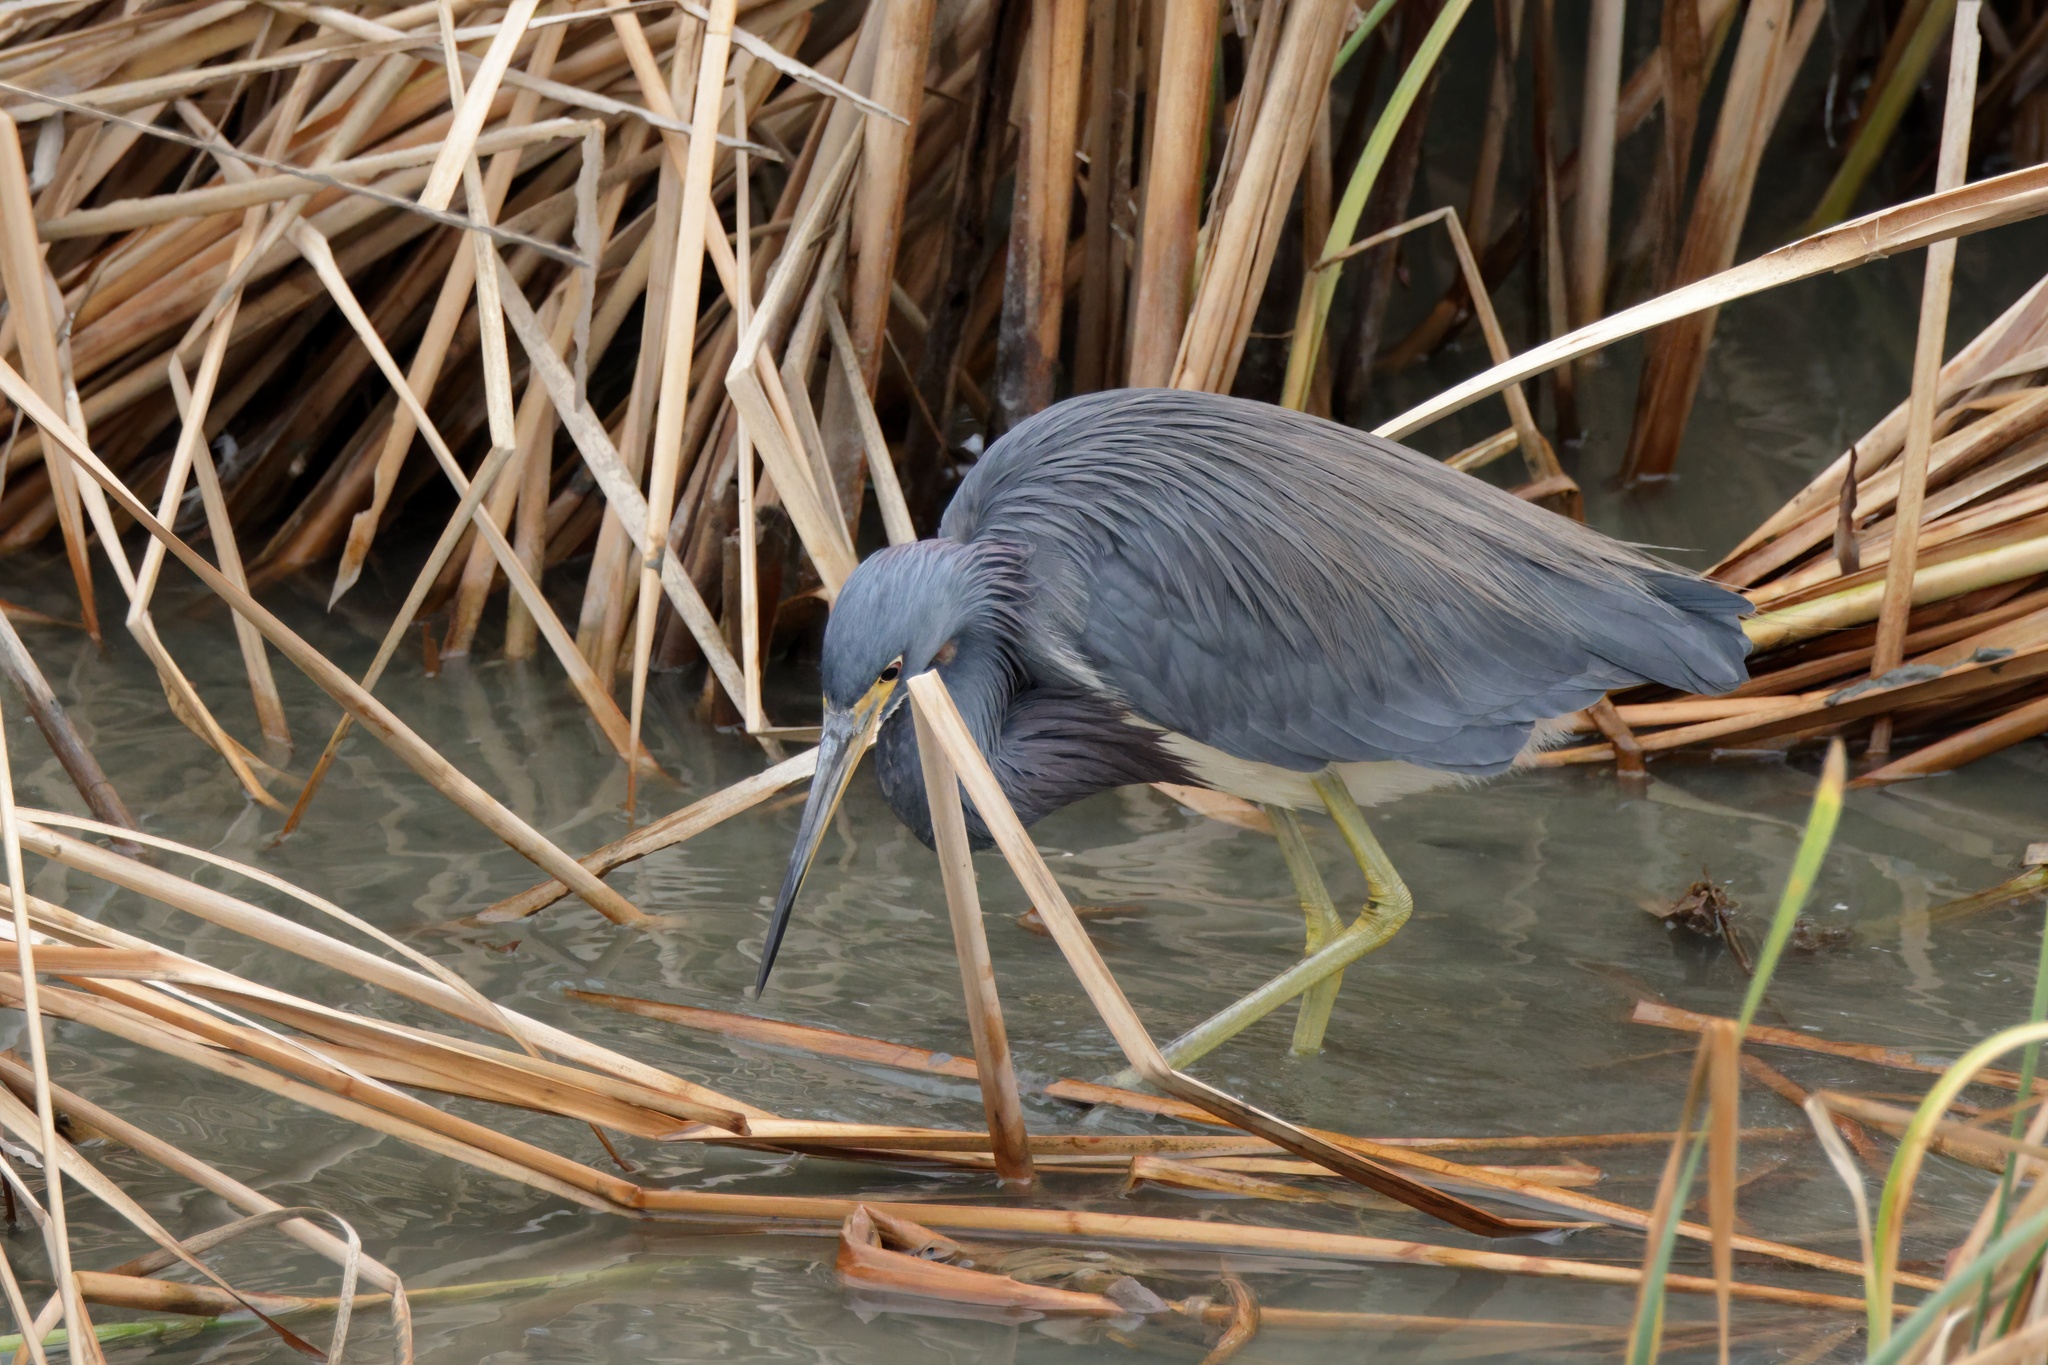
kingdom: Animalia
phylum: Chordata
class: Aves
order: Pelecaniformes
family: Ardeidae
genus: Egretta
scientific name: Egretta tricolor
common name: Tricolored heron
